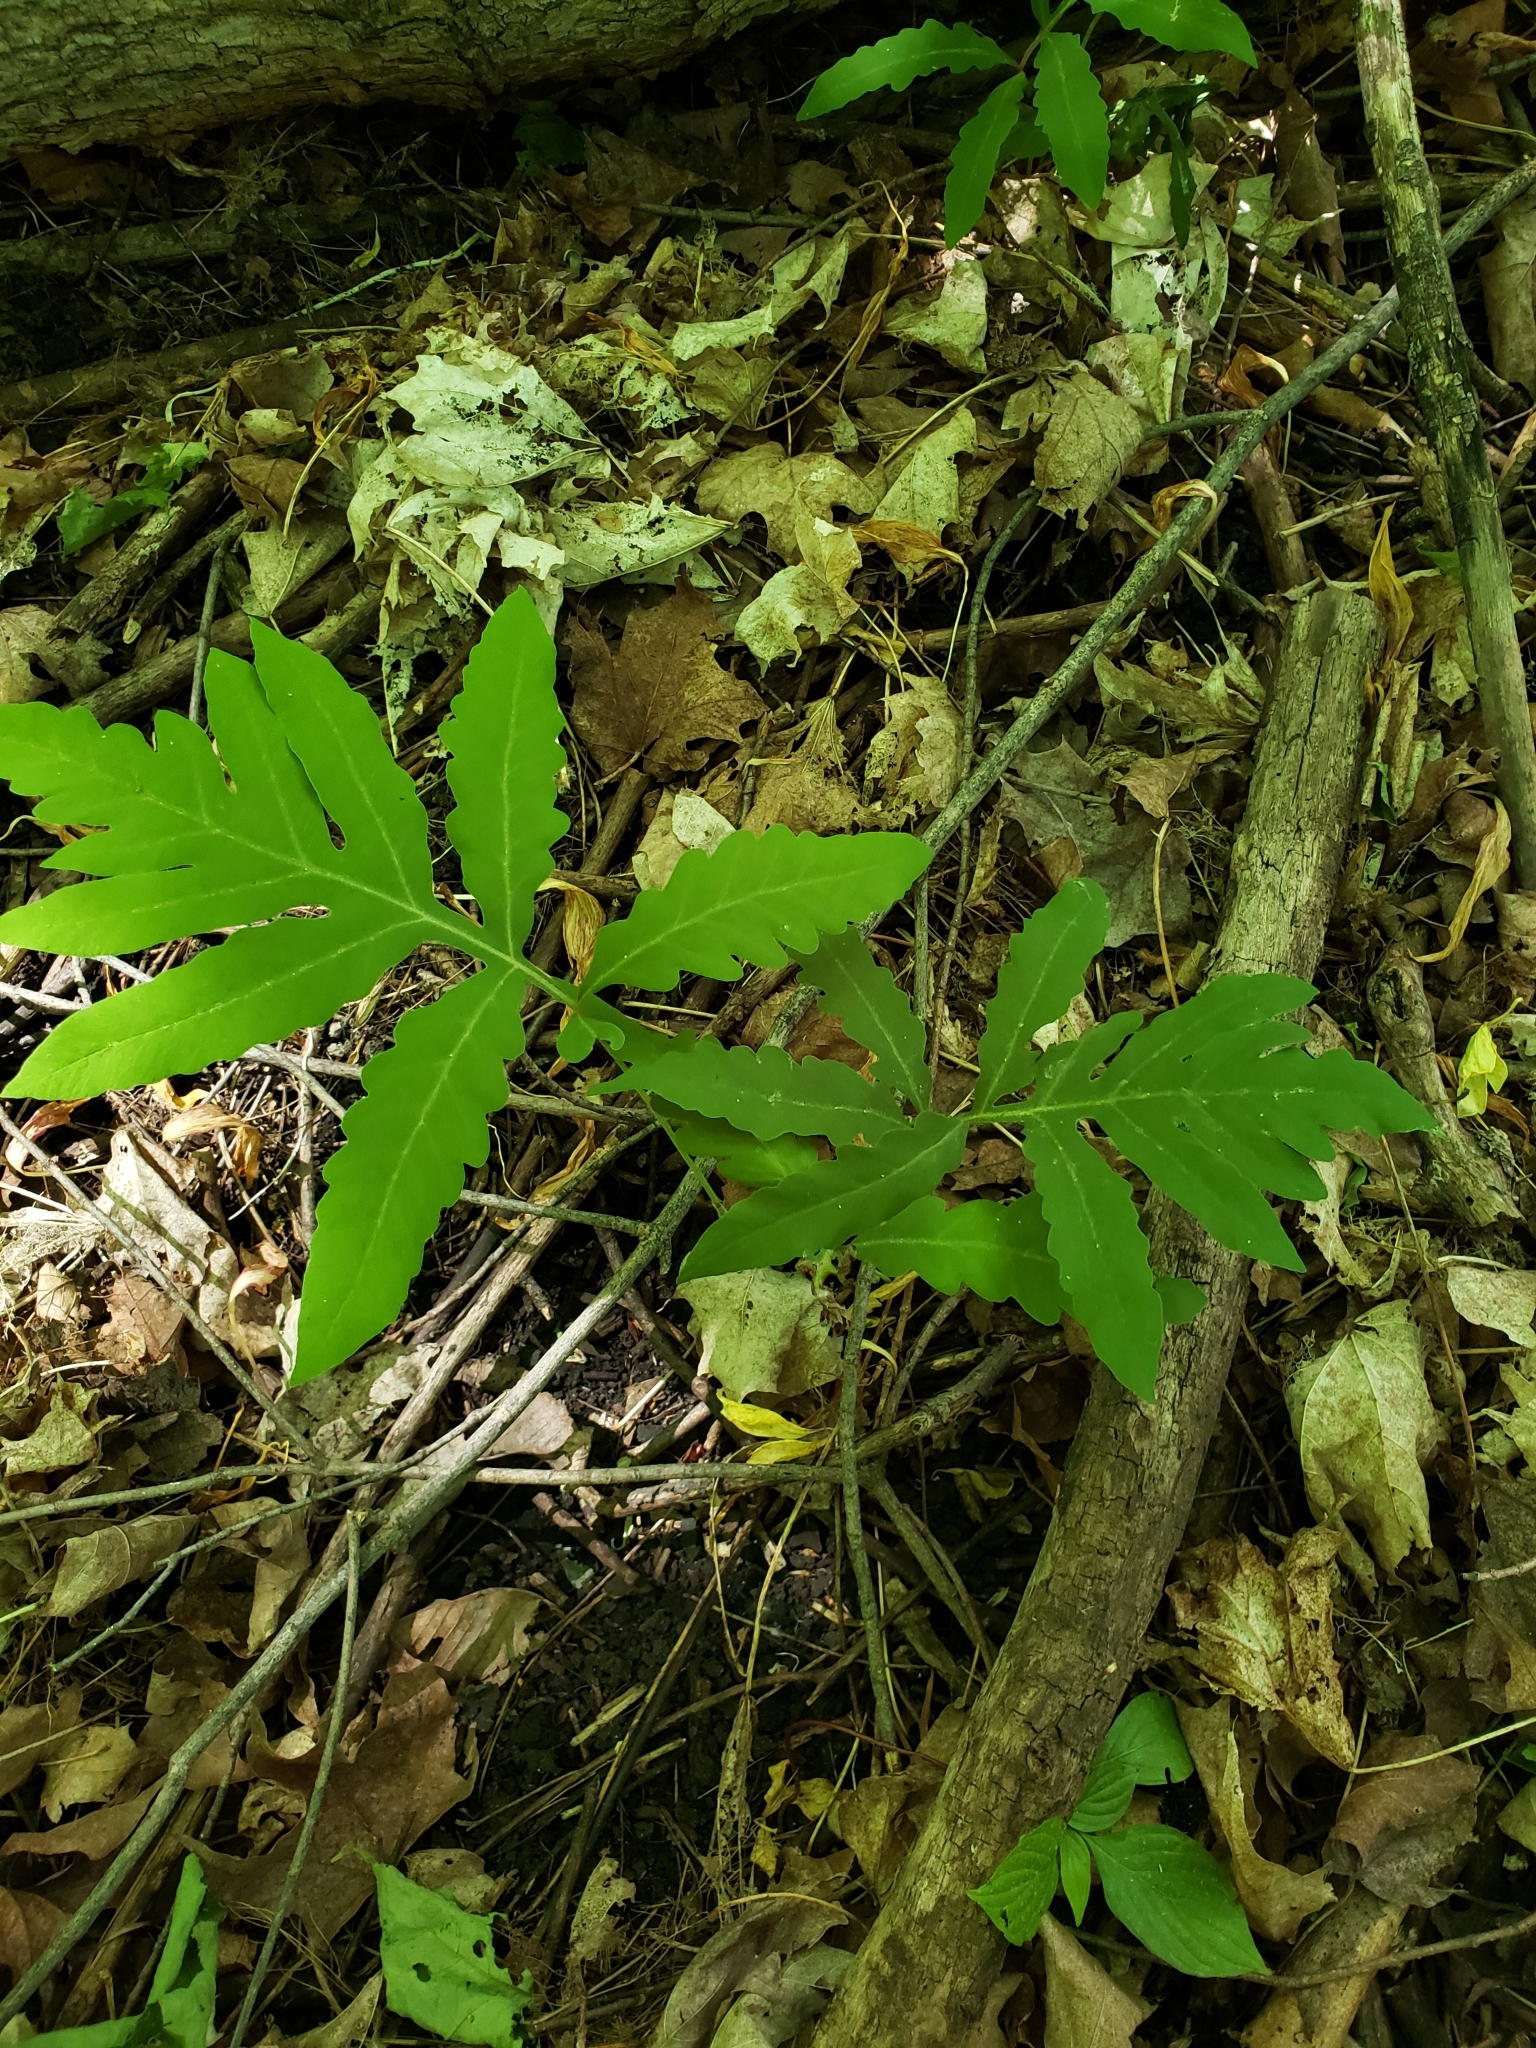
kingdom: Plantae
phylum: Tracheophyta
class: Polypodiopsida
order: Polypodiales
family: Onocleaceae
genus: Onoclea
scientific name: Onoclea sensibilis
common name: Sensitive fern
